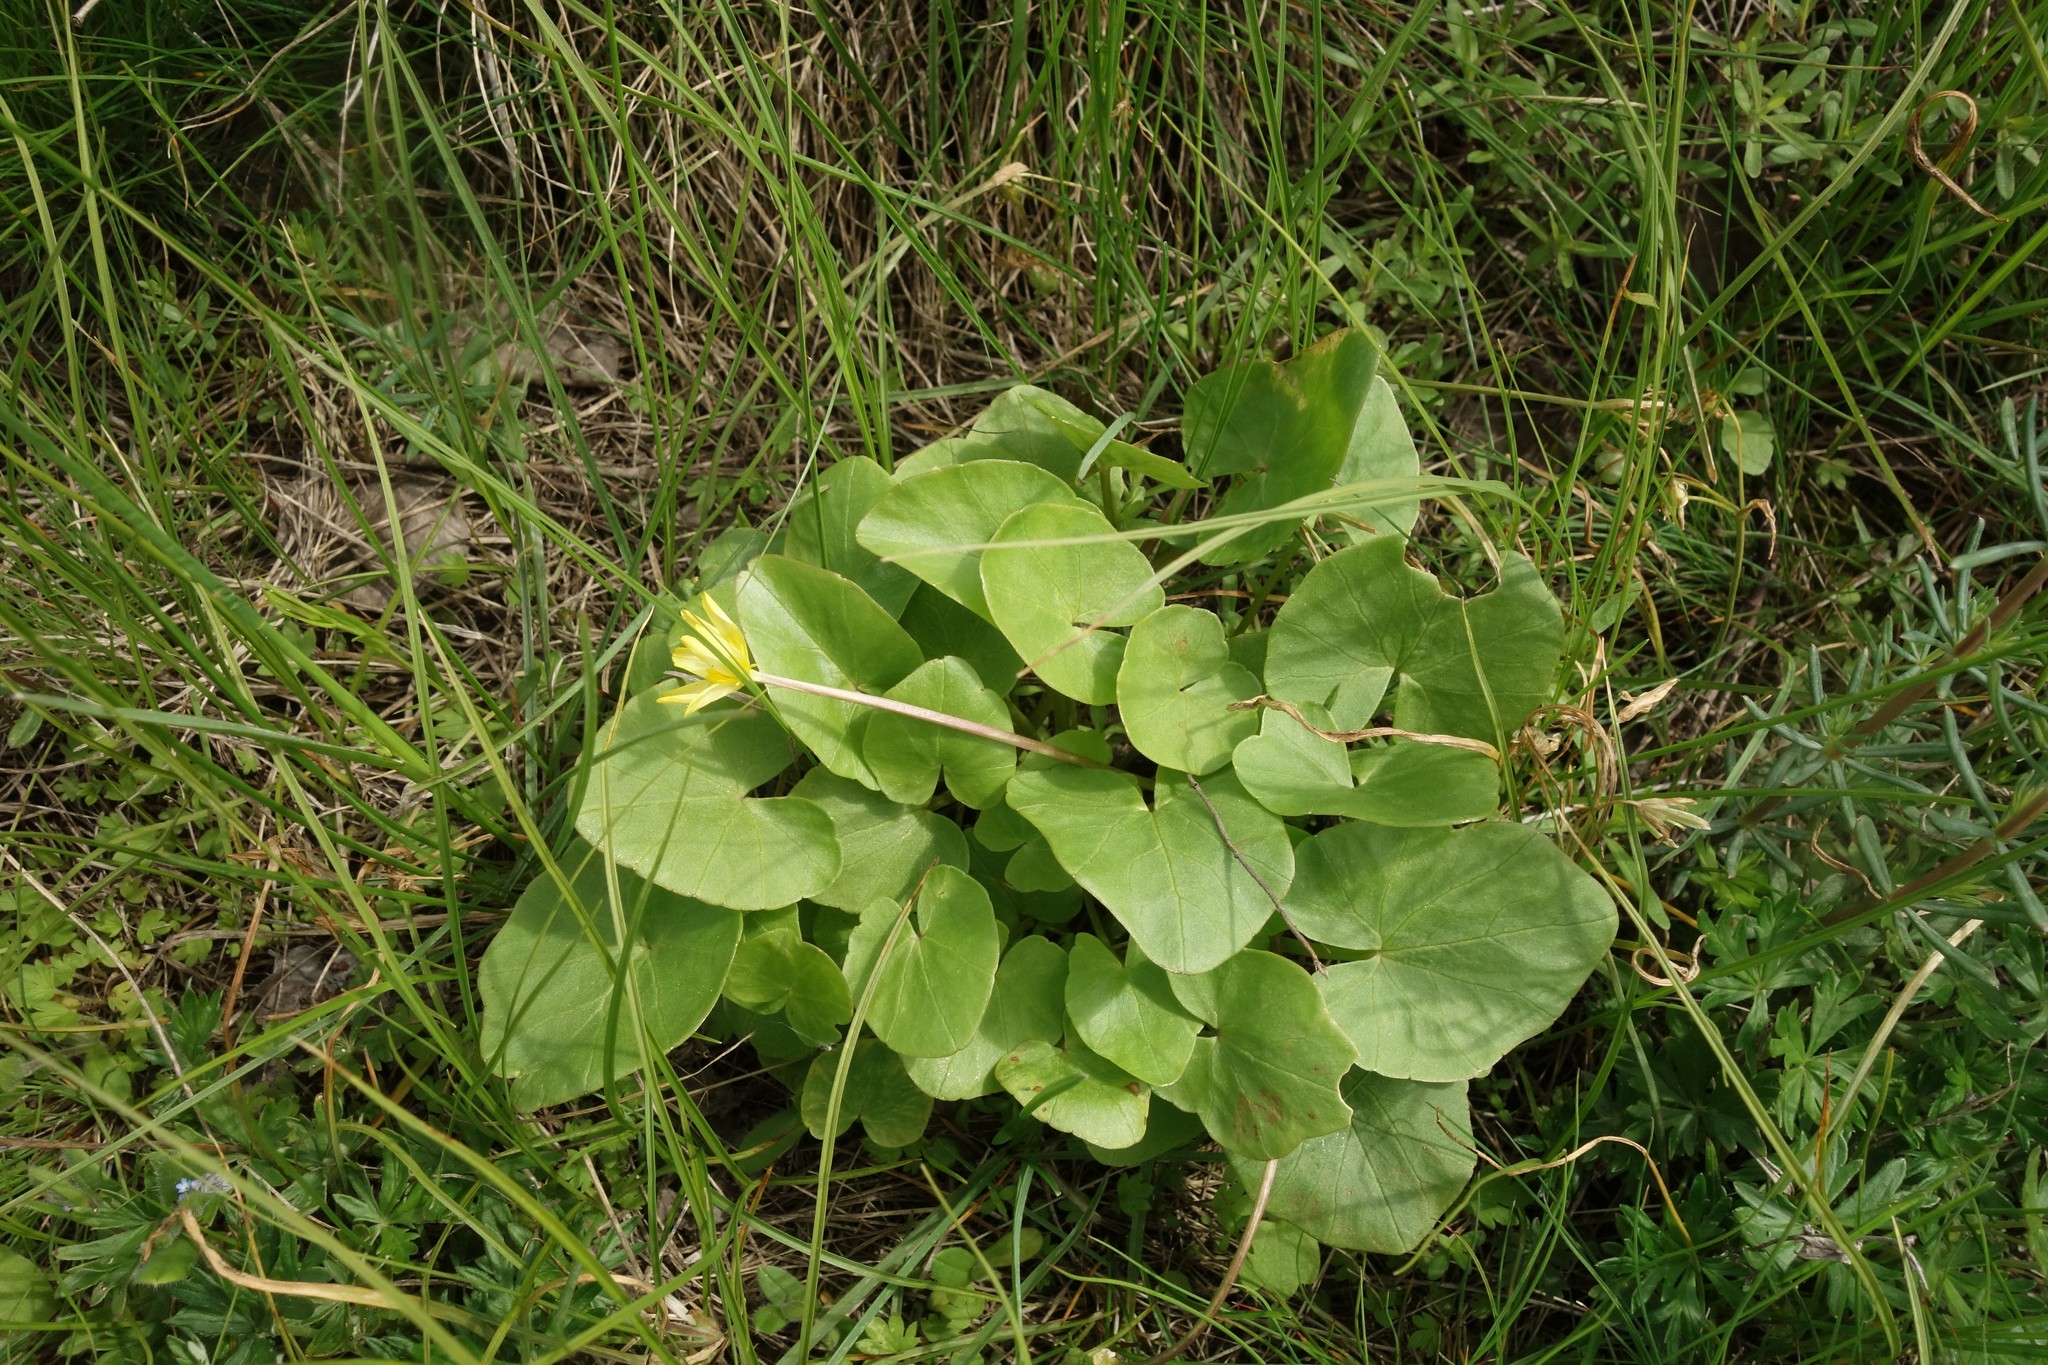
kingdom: Plantae
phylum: Tracheophyta
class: Magnoliopsida
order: Ranunculales
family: Ranunculaceae
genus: Ficaria
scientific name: Ficaria verna
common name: Lesser celandine
